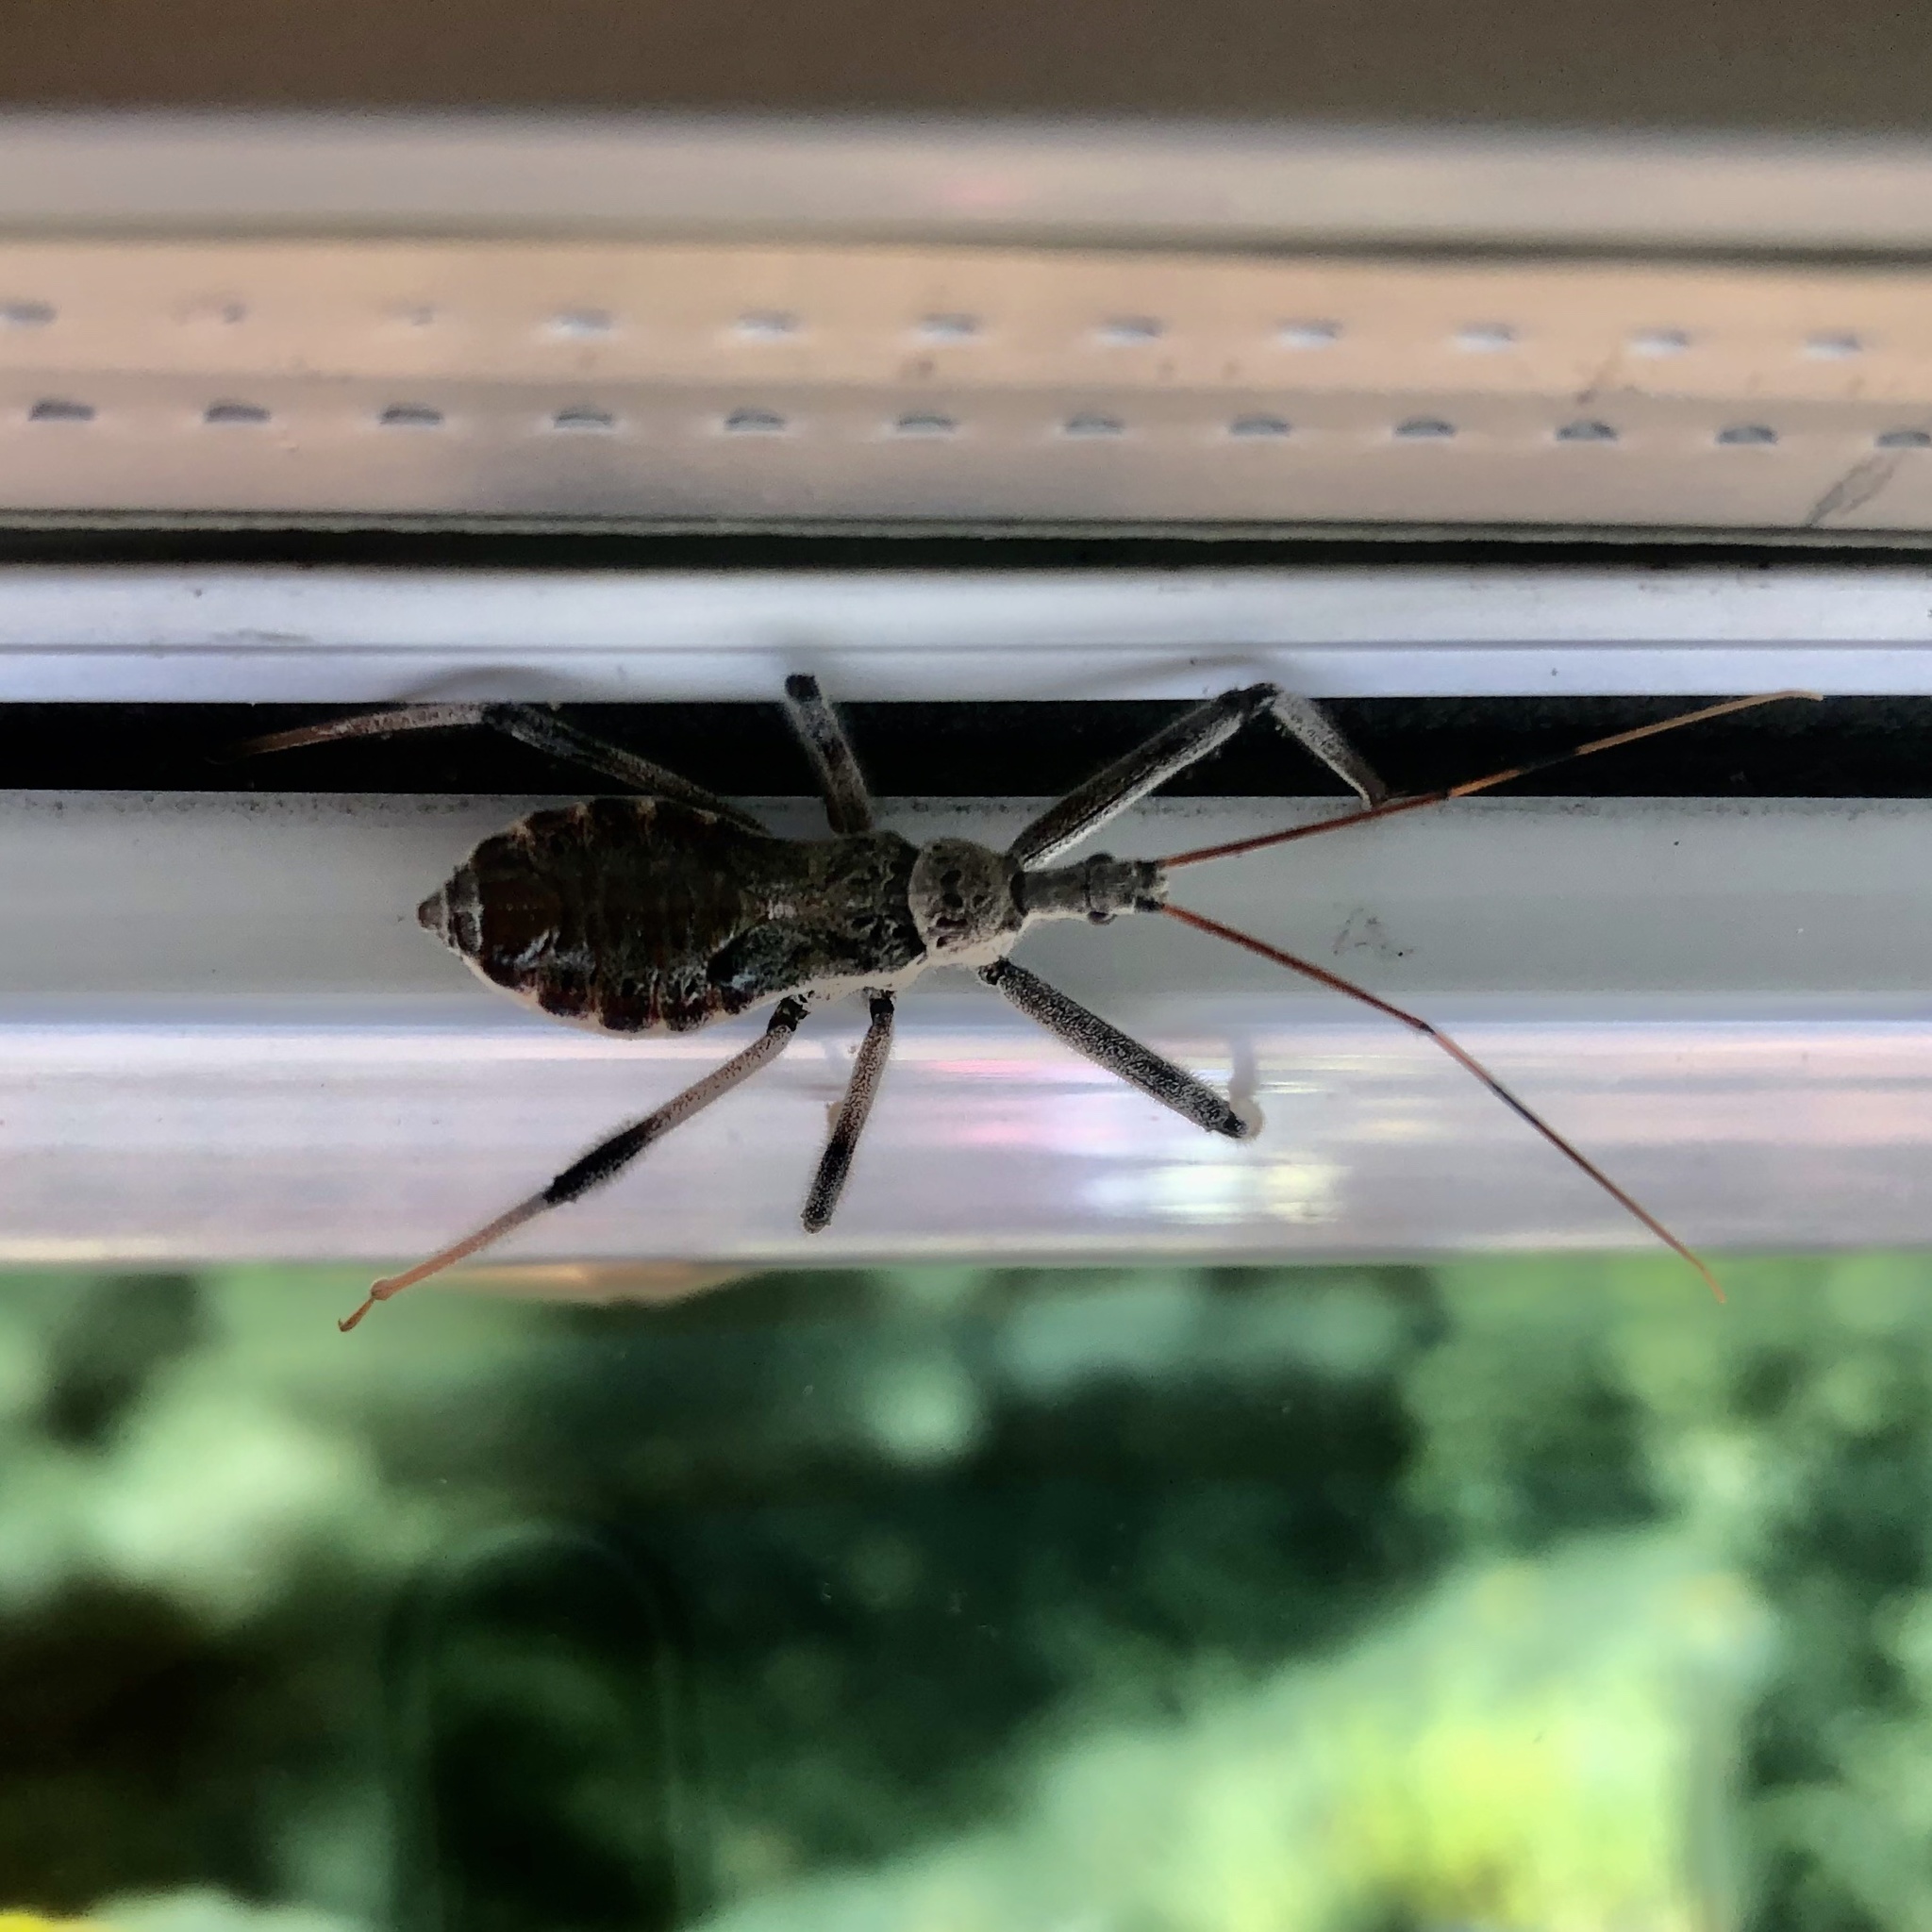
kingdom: Animalia
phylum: Arthropoda
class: Insecta
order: Hemiptera
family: Reduviidae
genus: Arilus
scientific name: Arilus cristatus
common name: North american wheel bug
